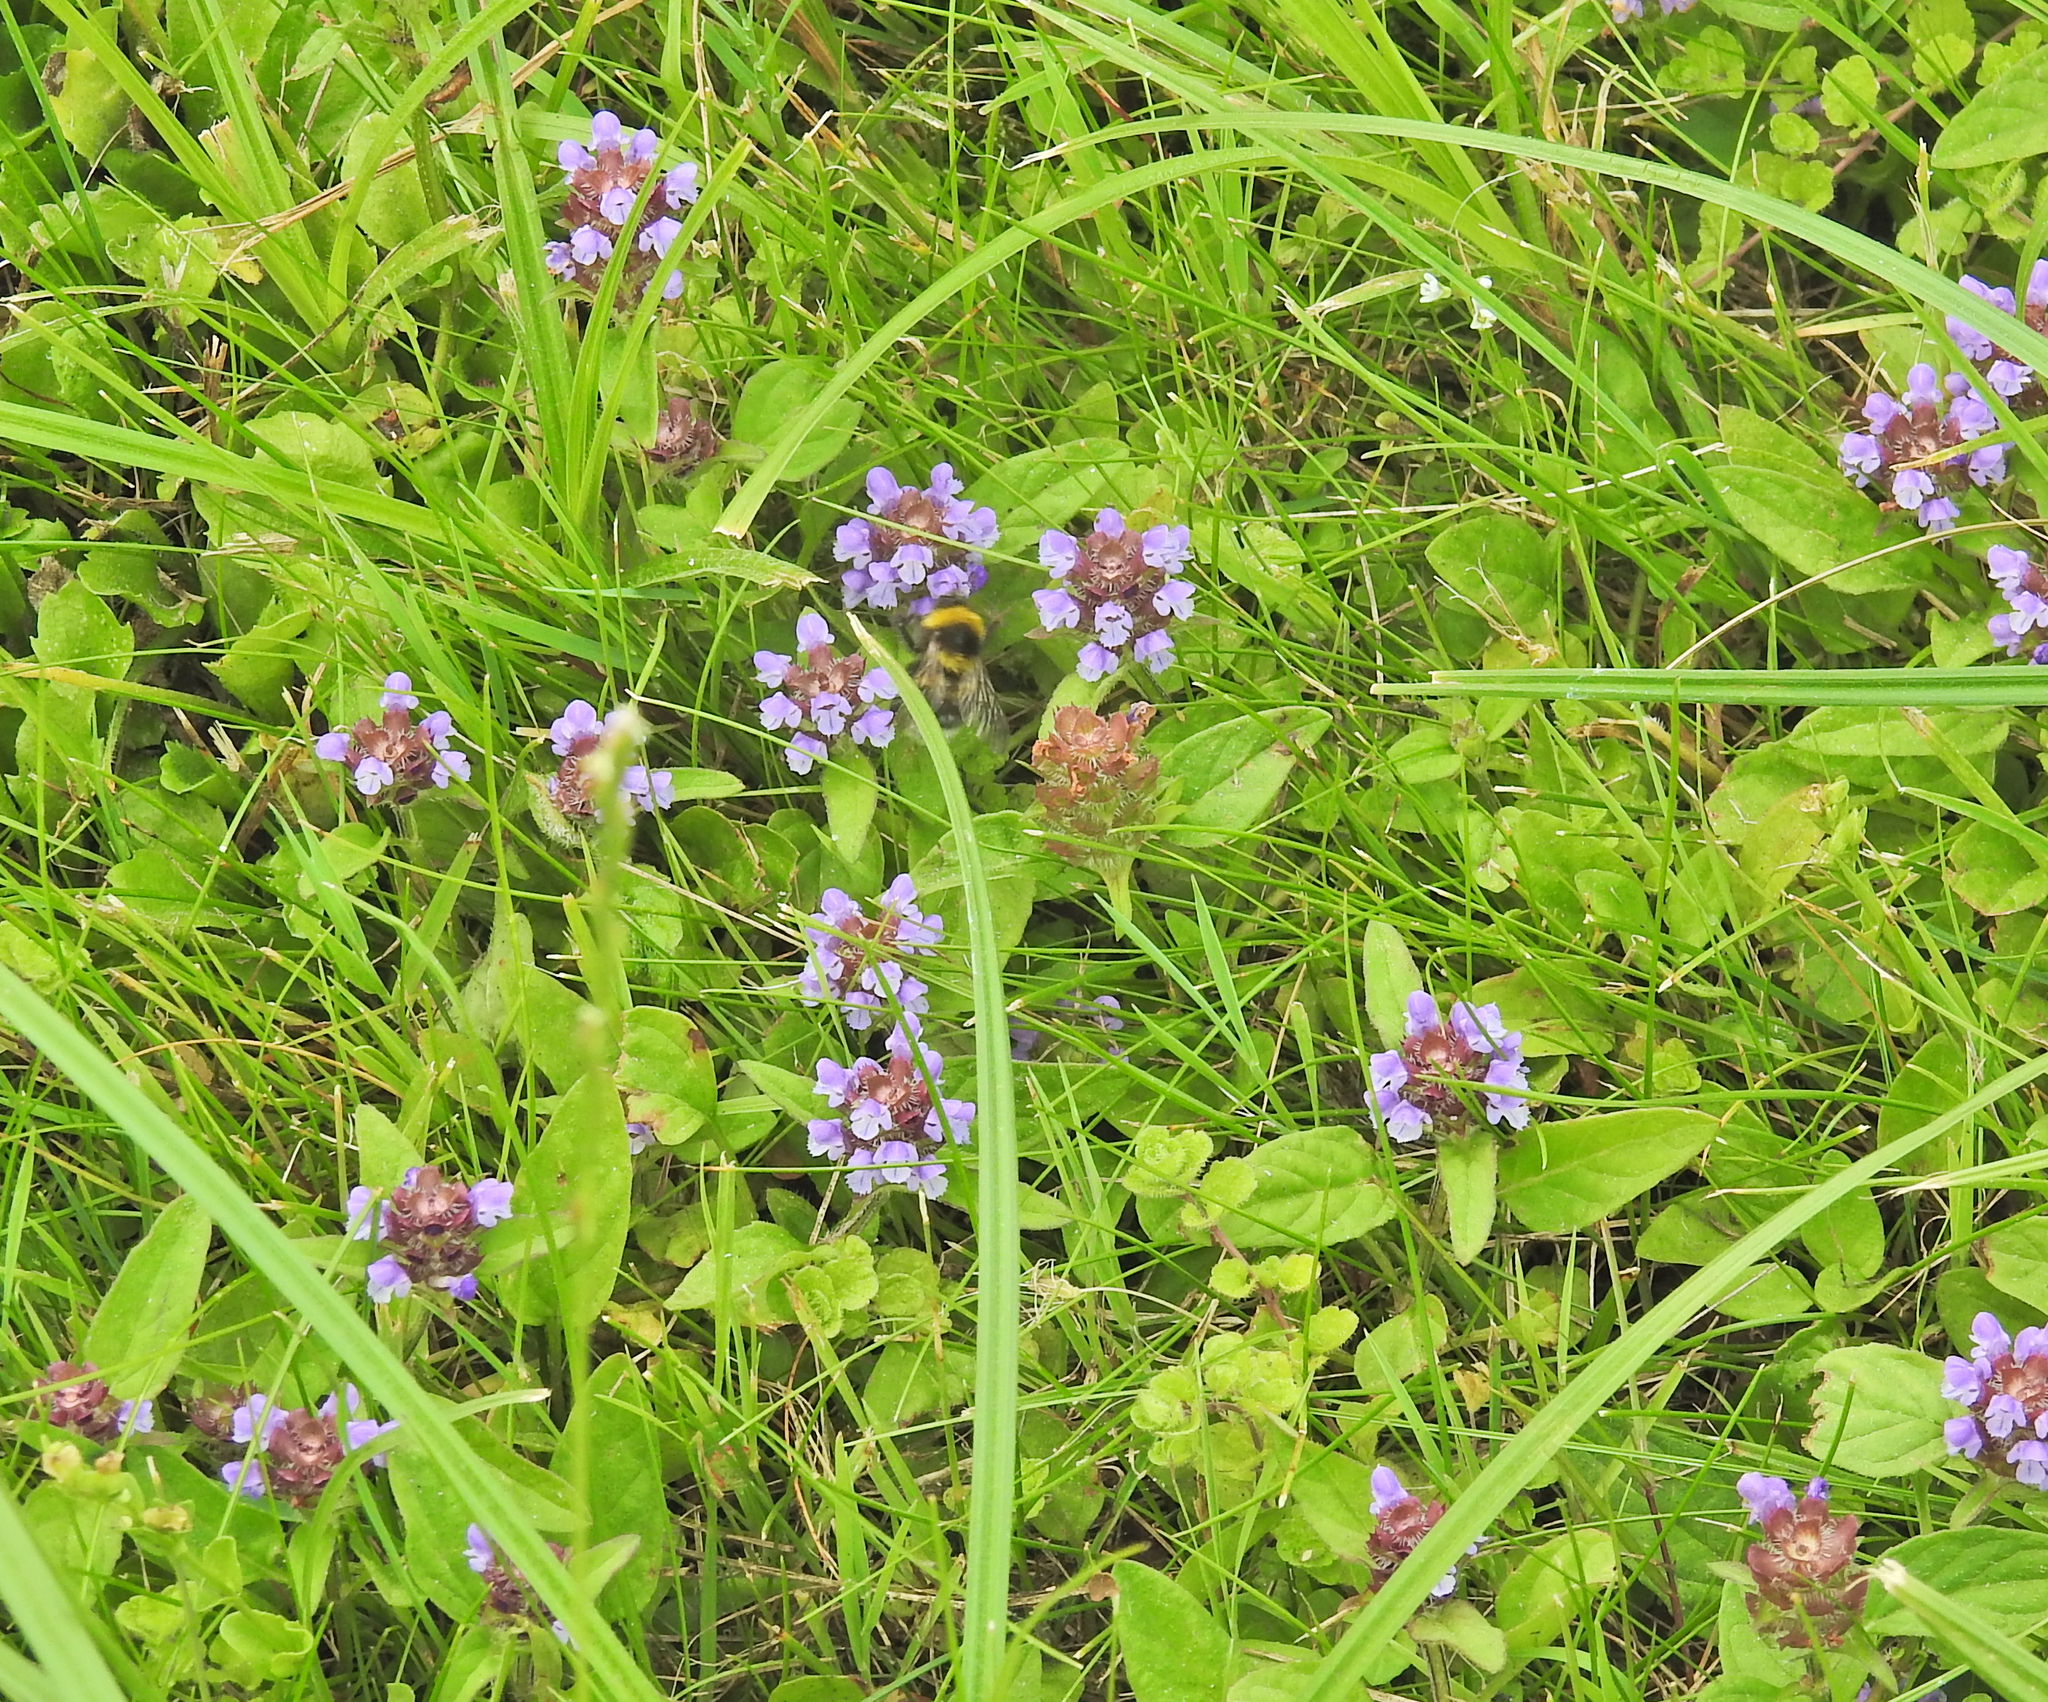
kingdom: Plantae
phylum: Tracheophyta
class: Magnoliopsida
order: Lamiales
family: Lamiaceae
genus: Prunella
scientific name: Prunella vulgaris
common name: Heal-all
